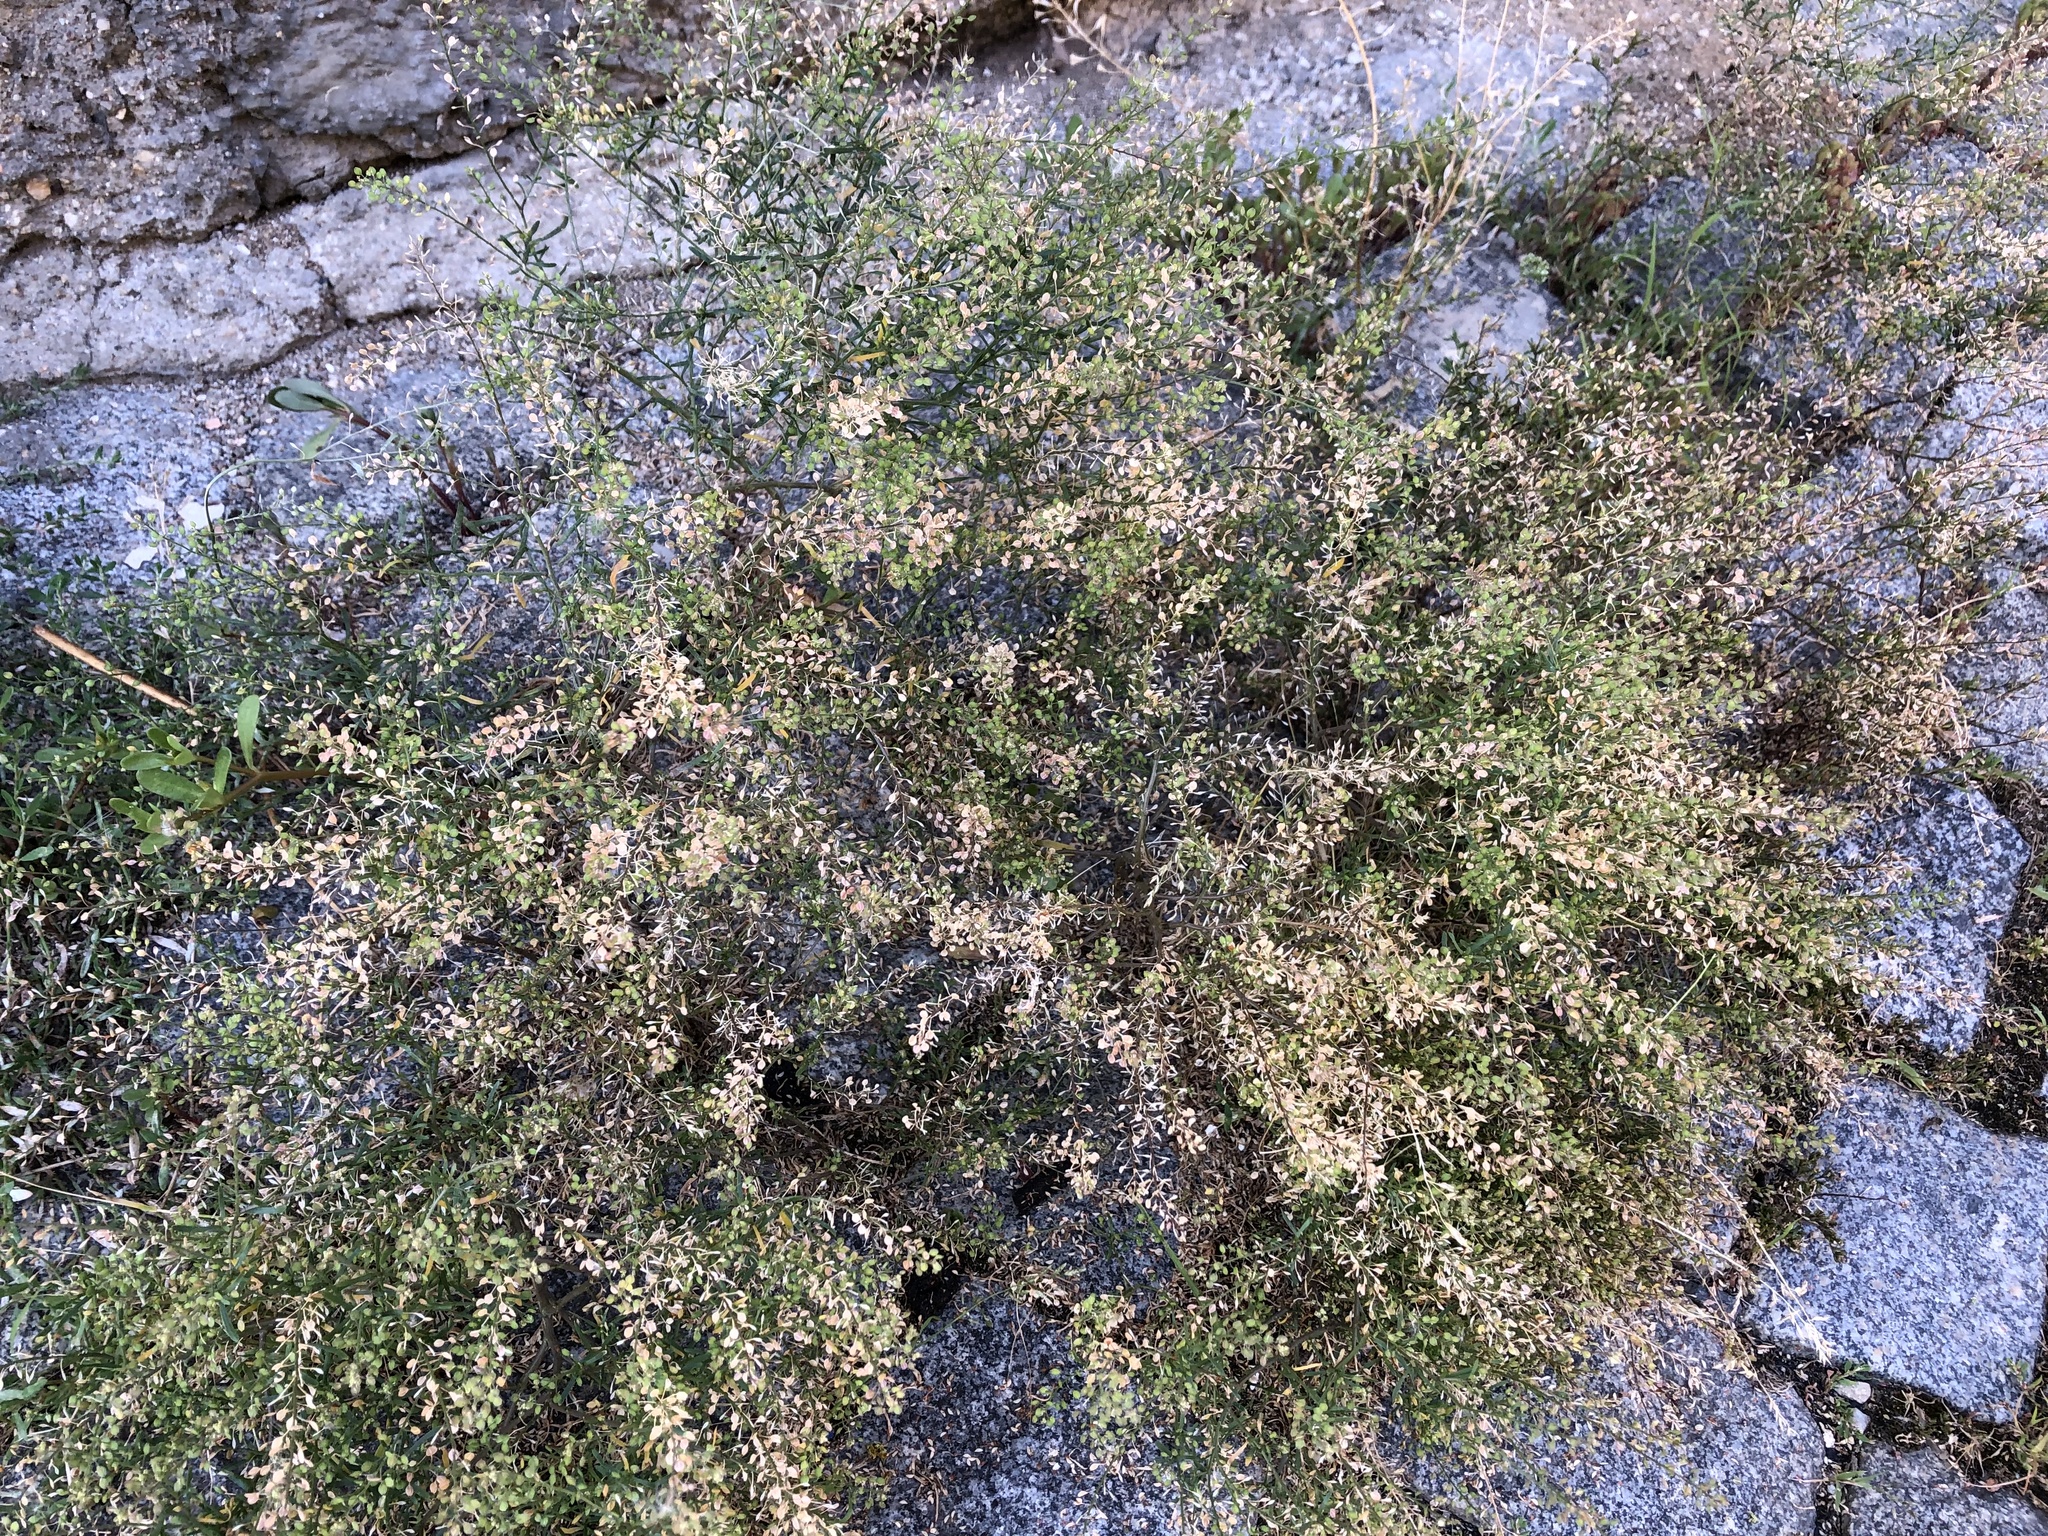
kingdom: Plantae
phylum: Tracheophyta
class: Magnoliopsida
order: Brassicales
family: Brassicaceae
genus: Lepidium
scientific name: Lepidium ruderale
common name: Narrow-leaved pepperwort
